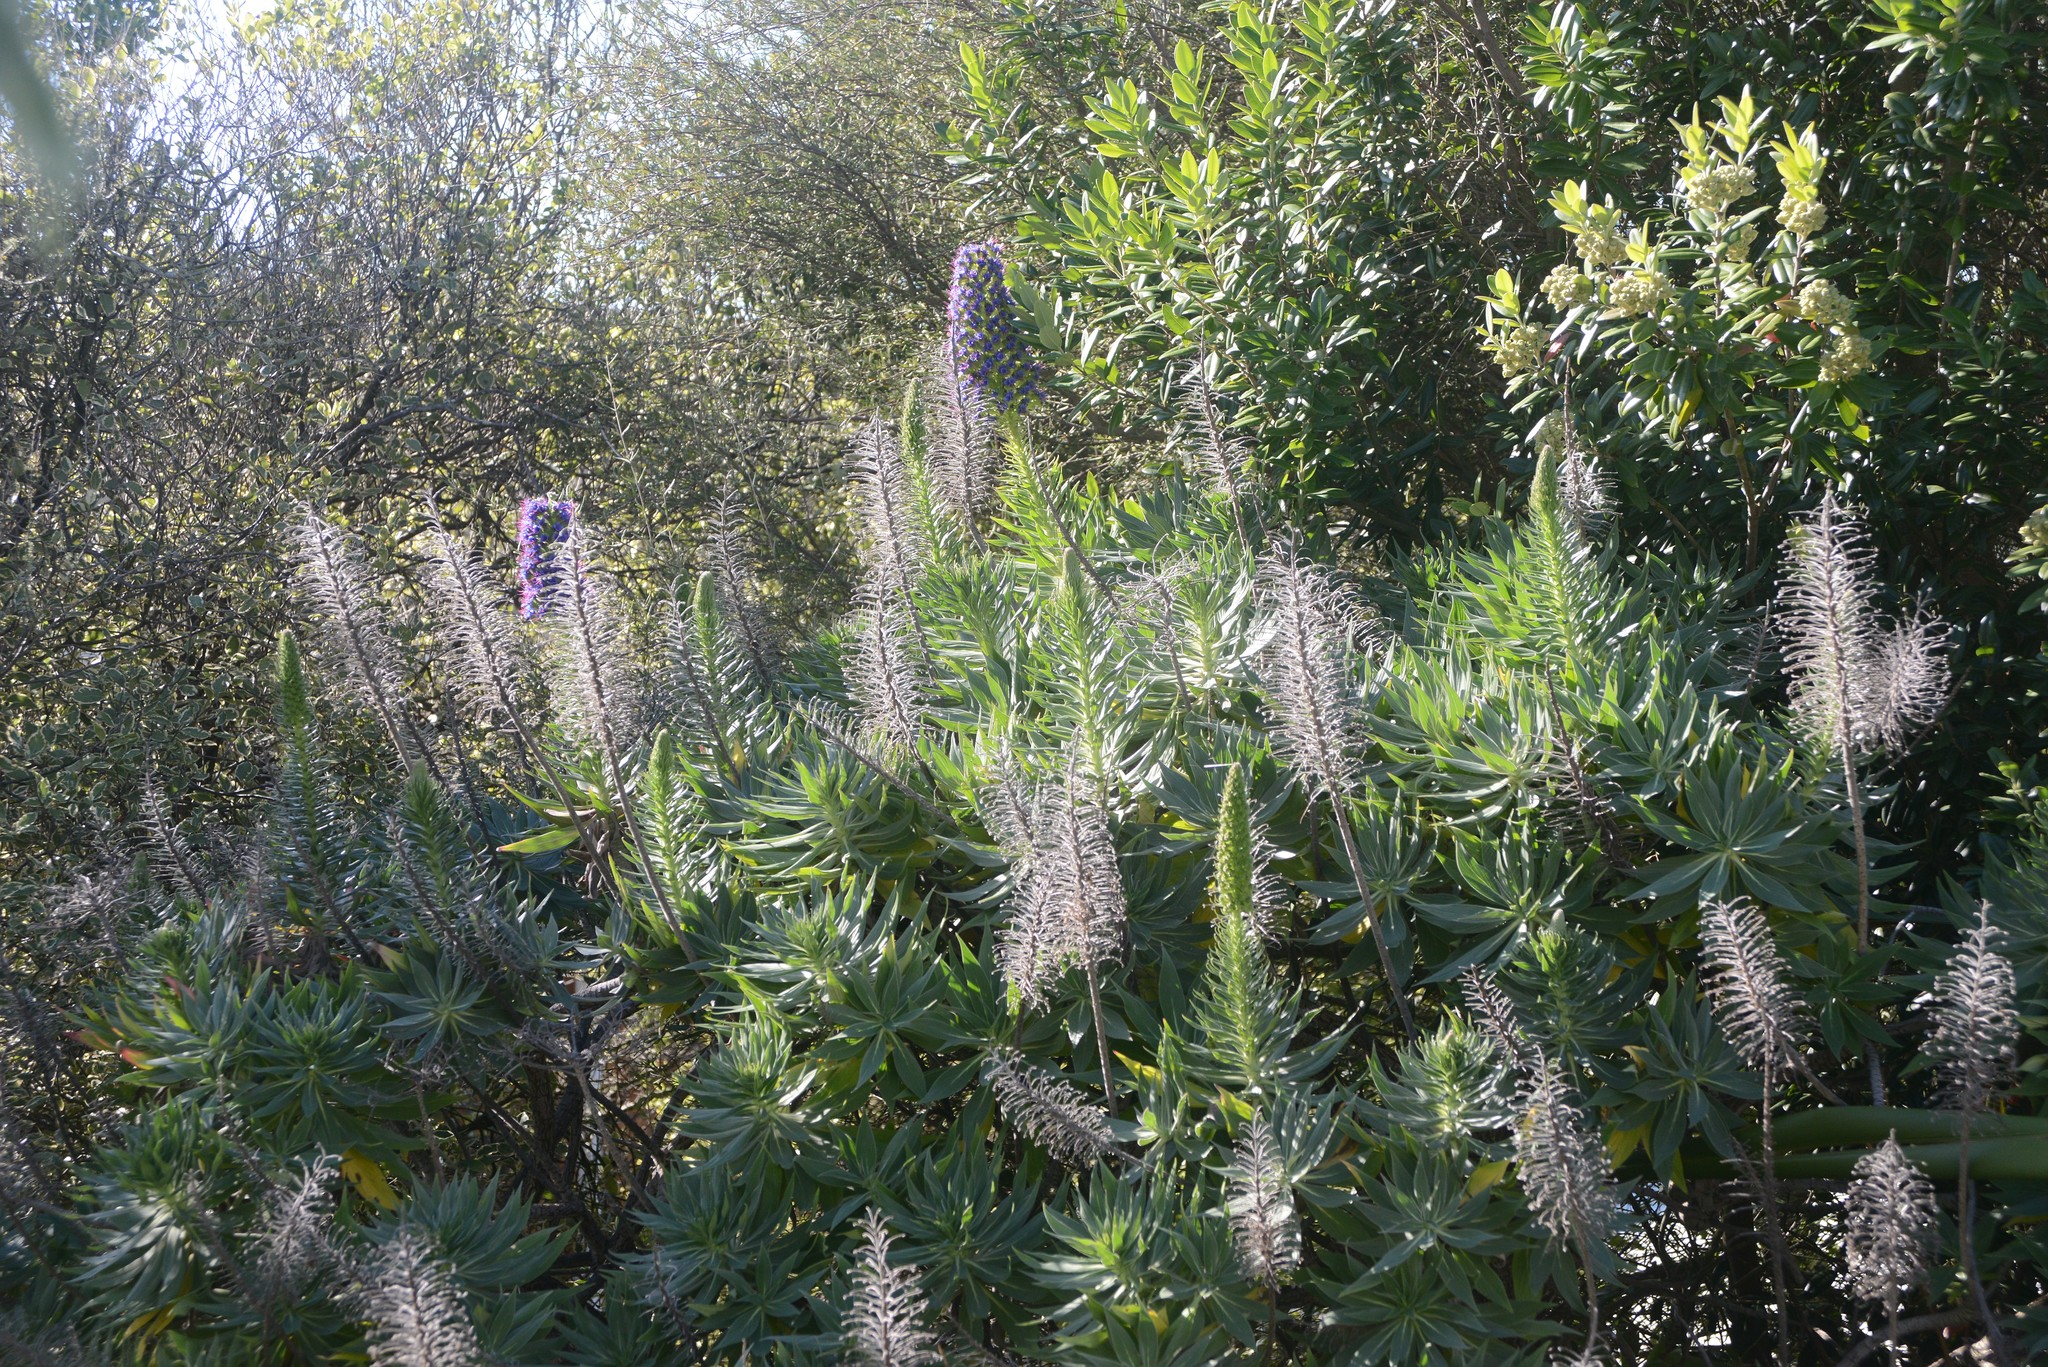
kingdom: Plantae
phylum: Tracheophyta
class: Magnoliopsida
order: Boraginales
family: Boraginaceae
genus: Echium
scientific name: Echium candicans
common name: Pride of madeira
